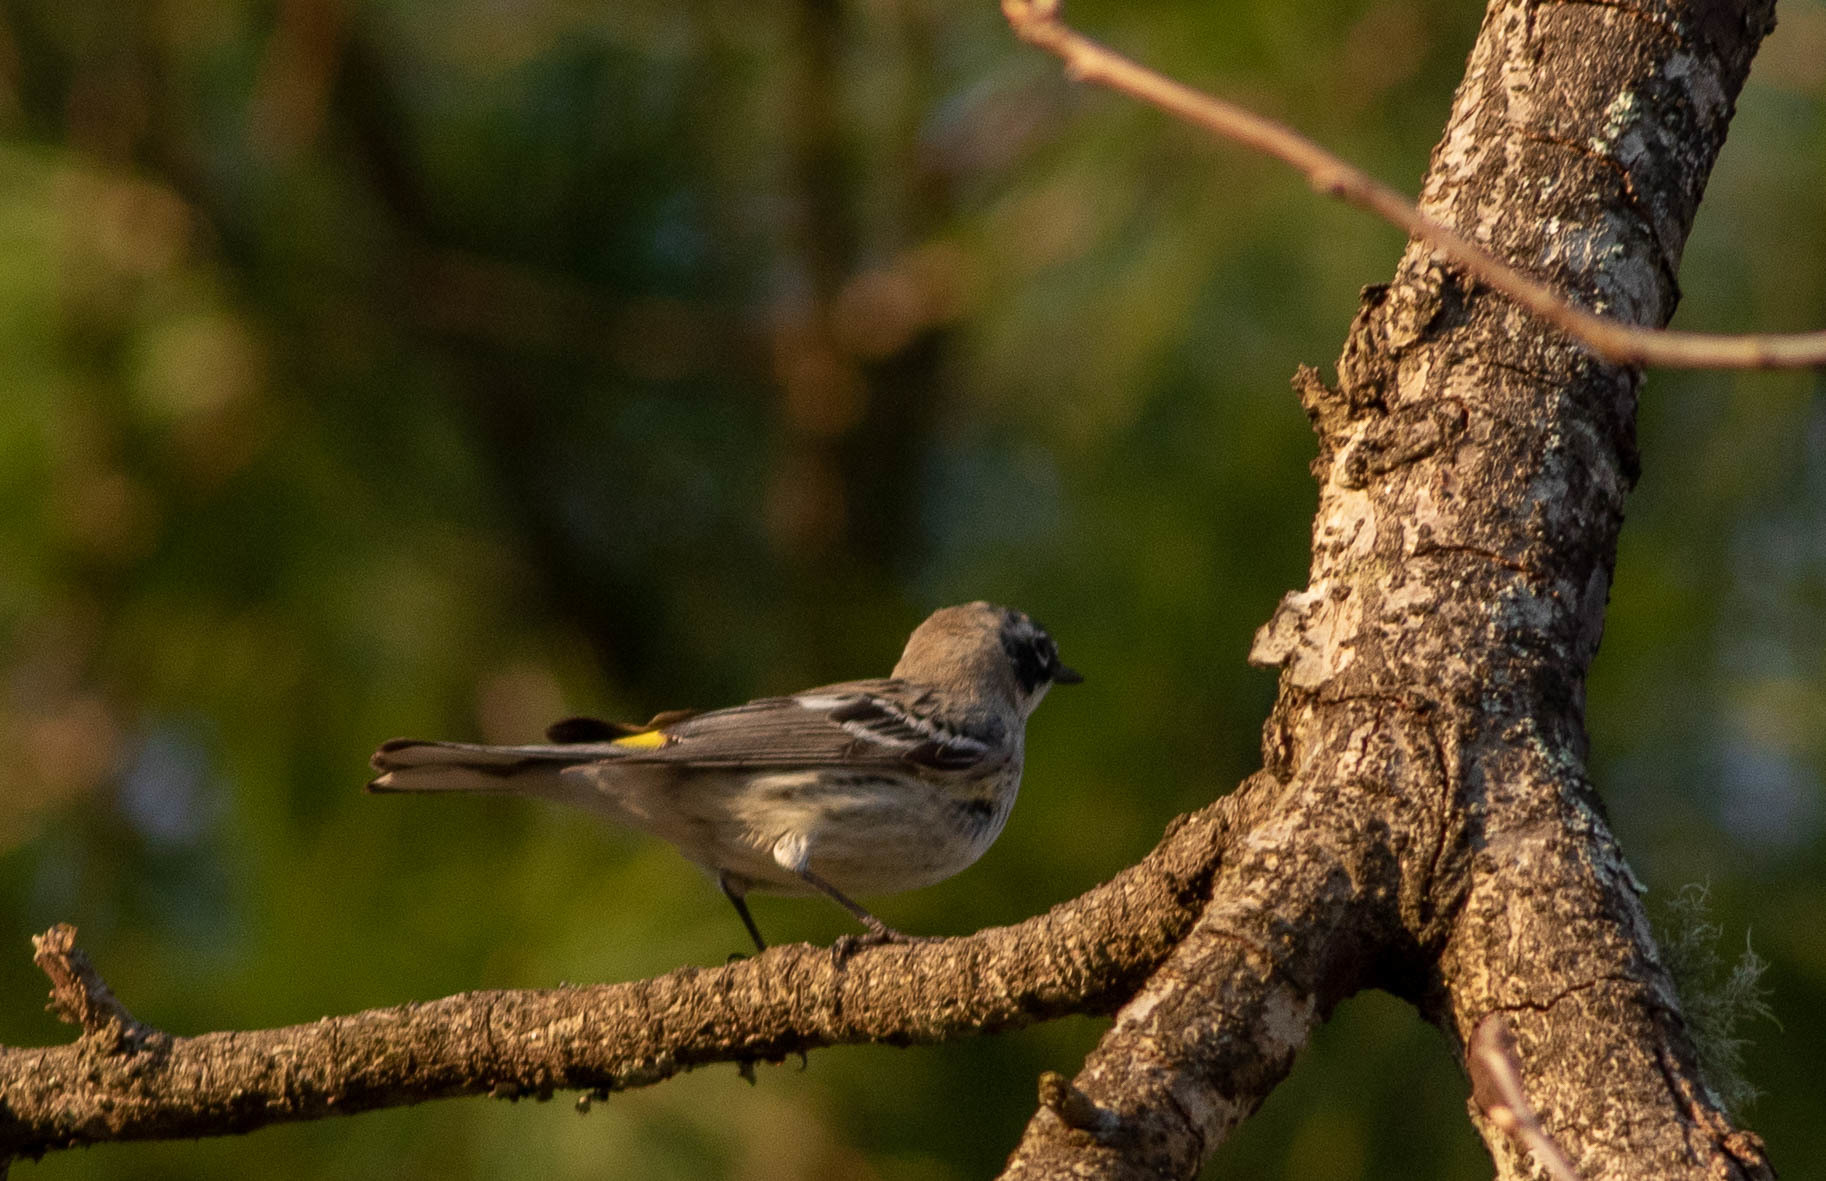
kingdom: Animalia
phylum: Chordata
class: Aves
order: Passeriformes
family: Parulidae
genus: Setophaga
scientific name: Setophaga coronata
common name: Myrtle warbler
